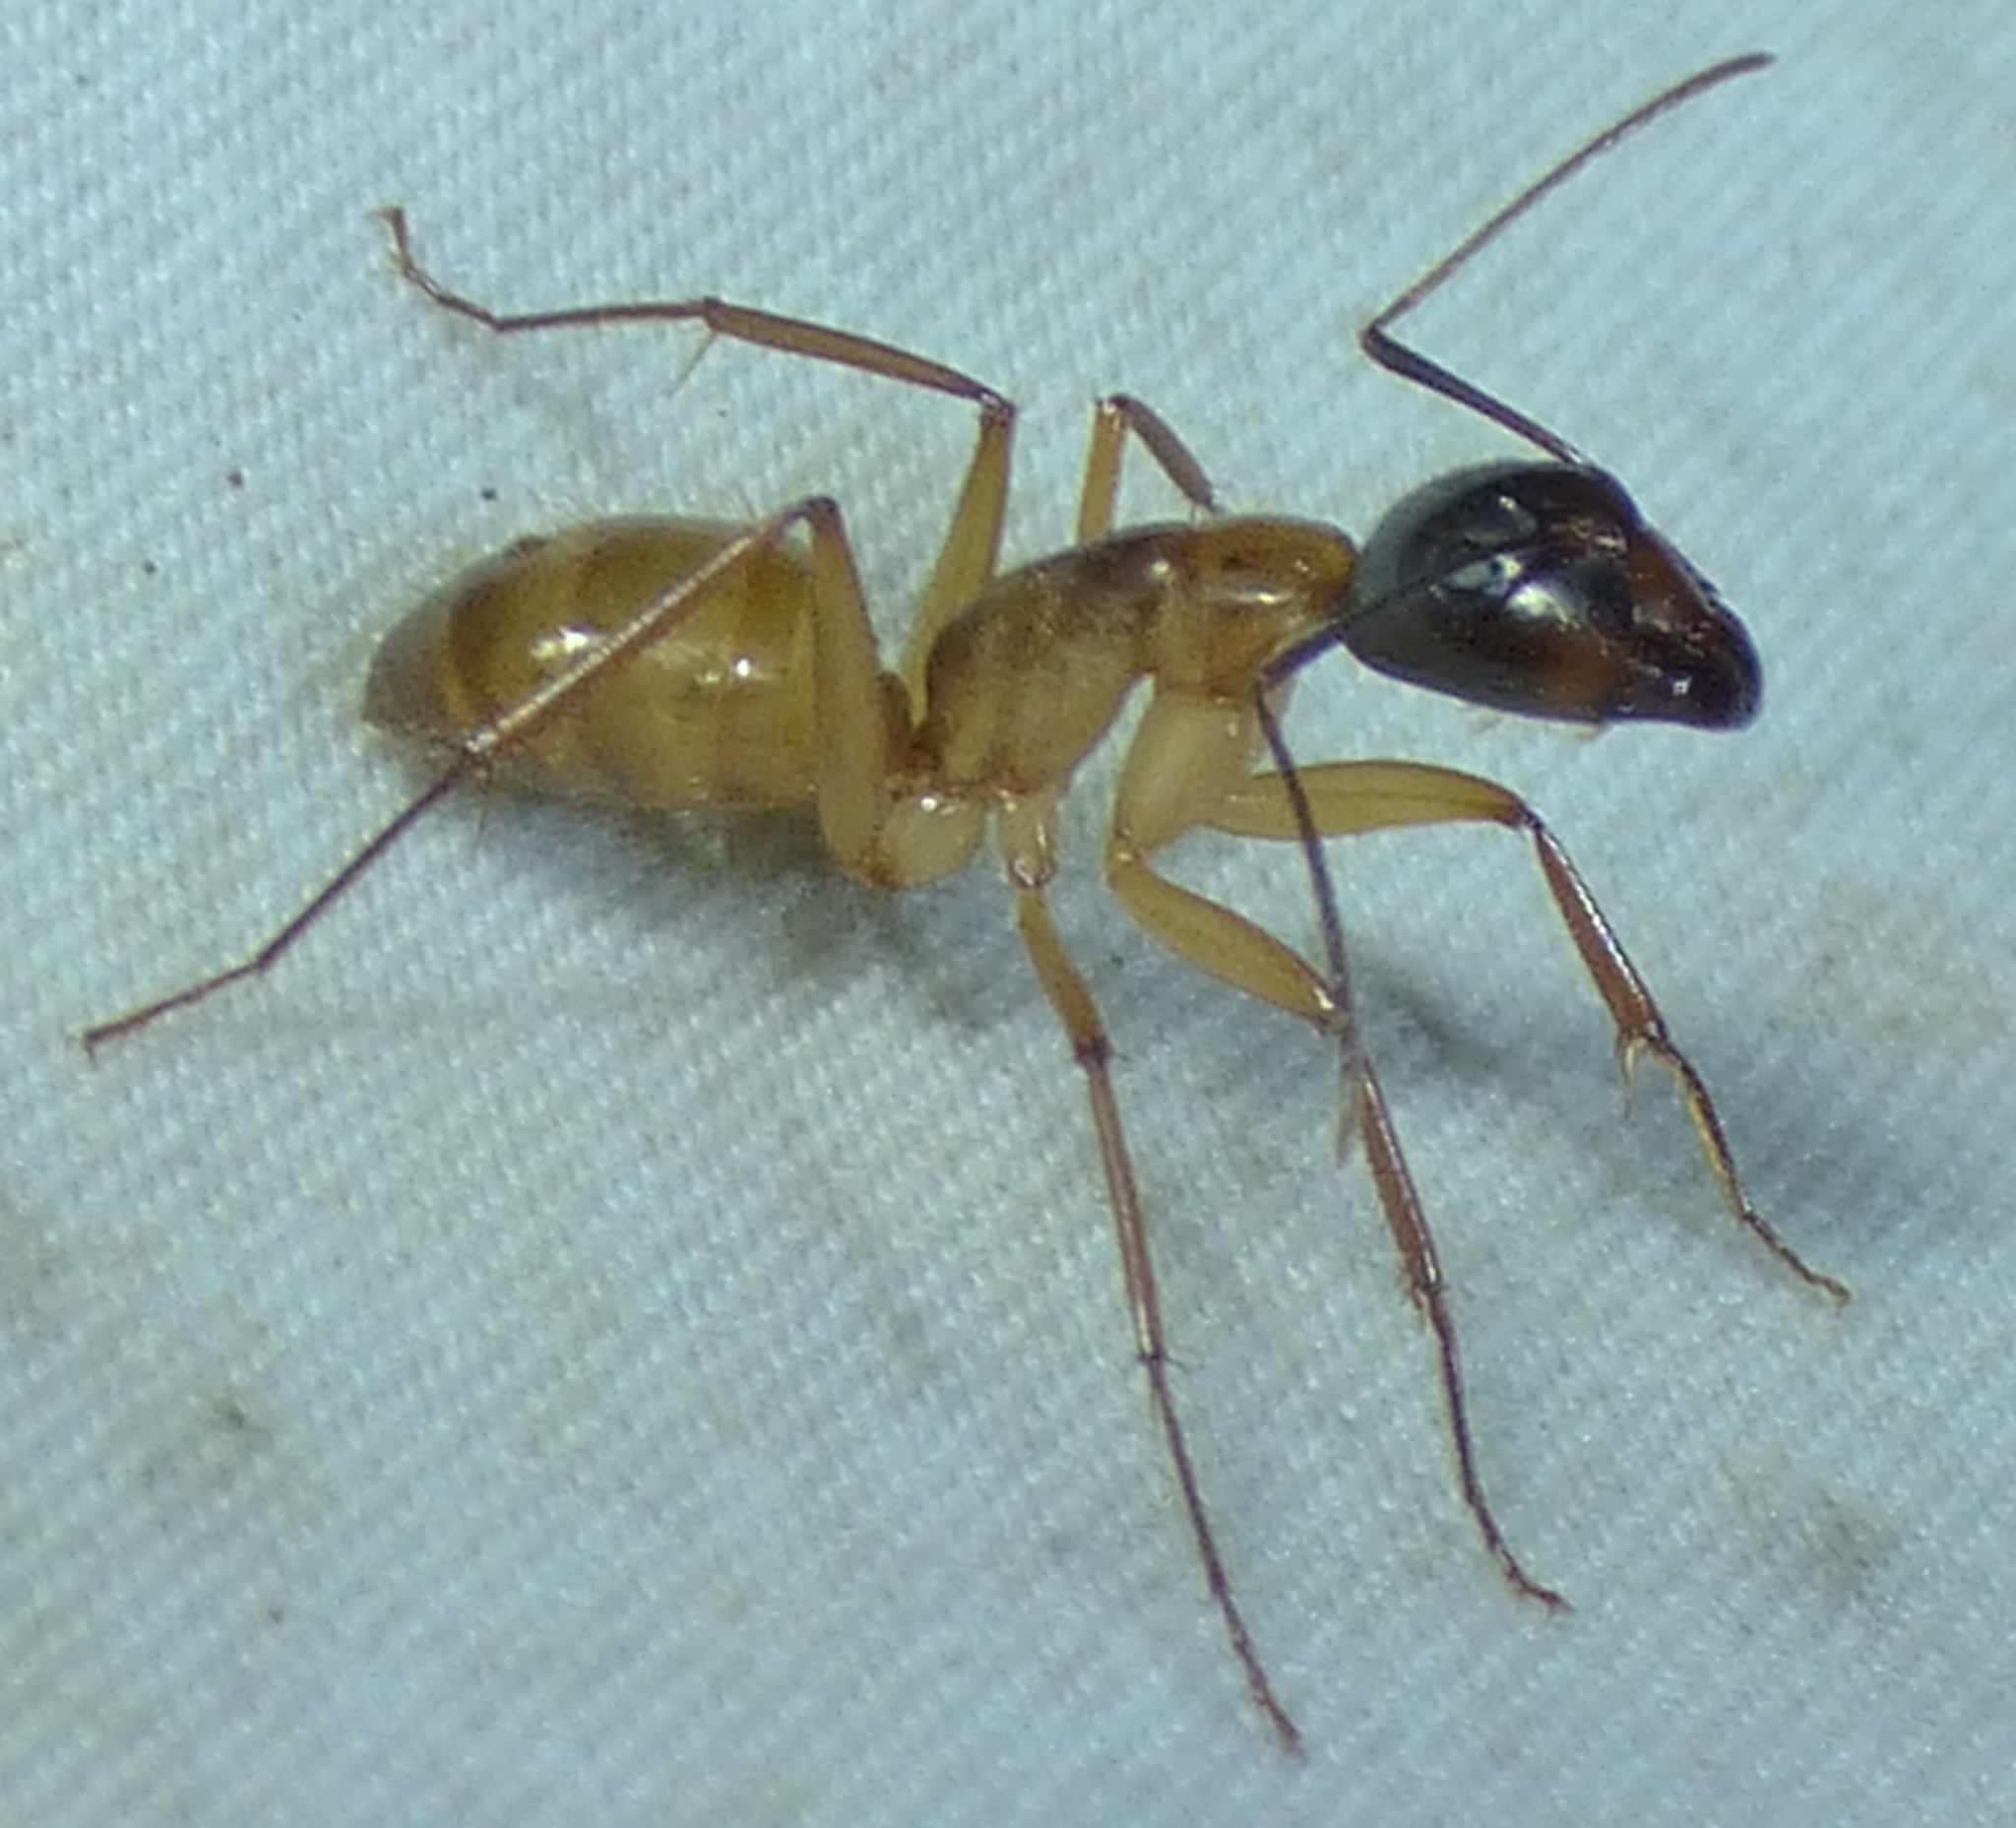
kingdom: Animalia
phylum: Arthropoda
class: Insecta
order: Hymenoptera
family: Formicidae
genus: Camponotus
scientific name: Camponotus americanus
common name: American carpenter ant
